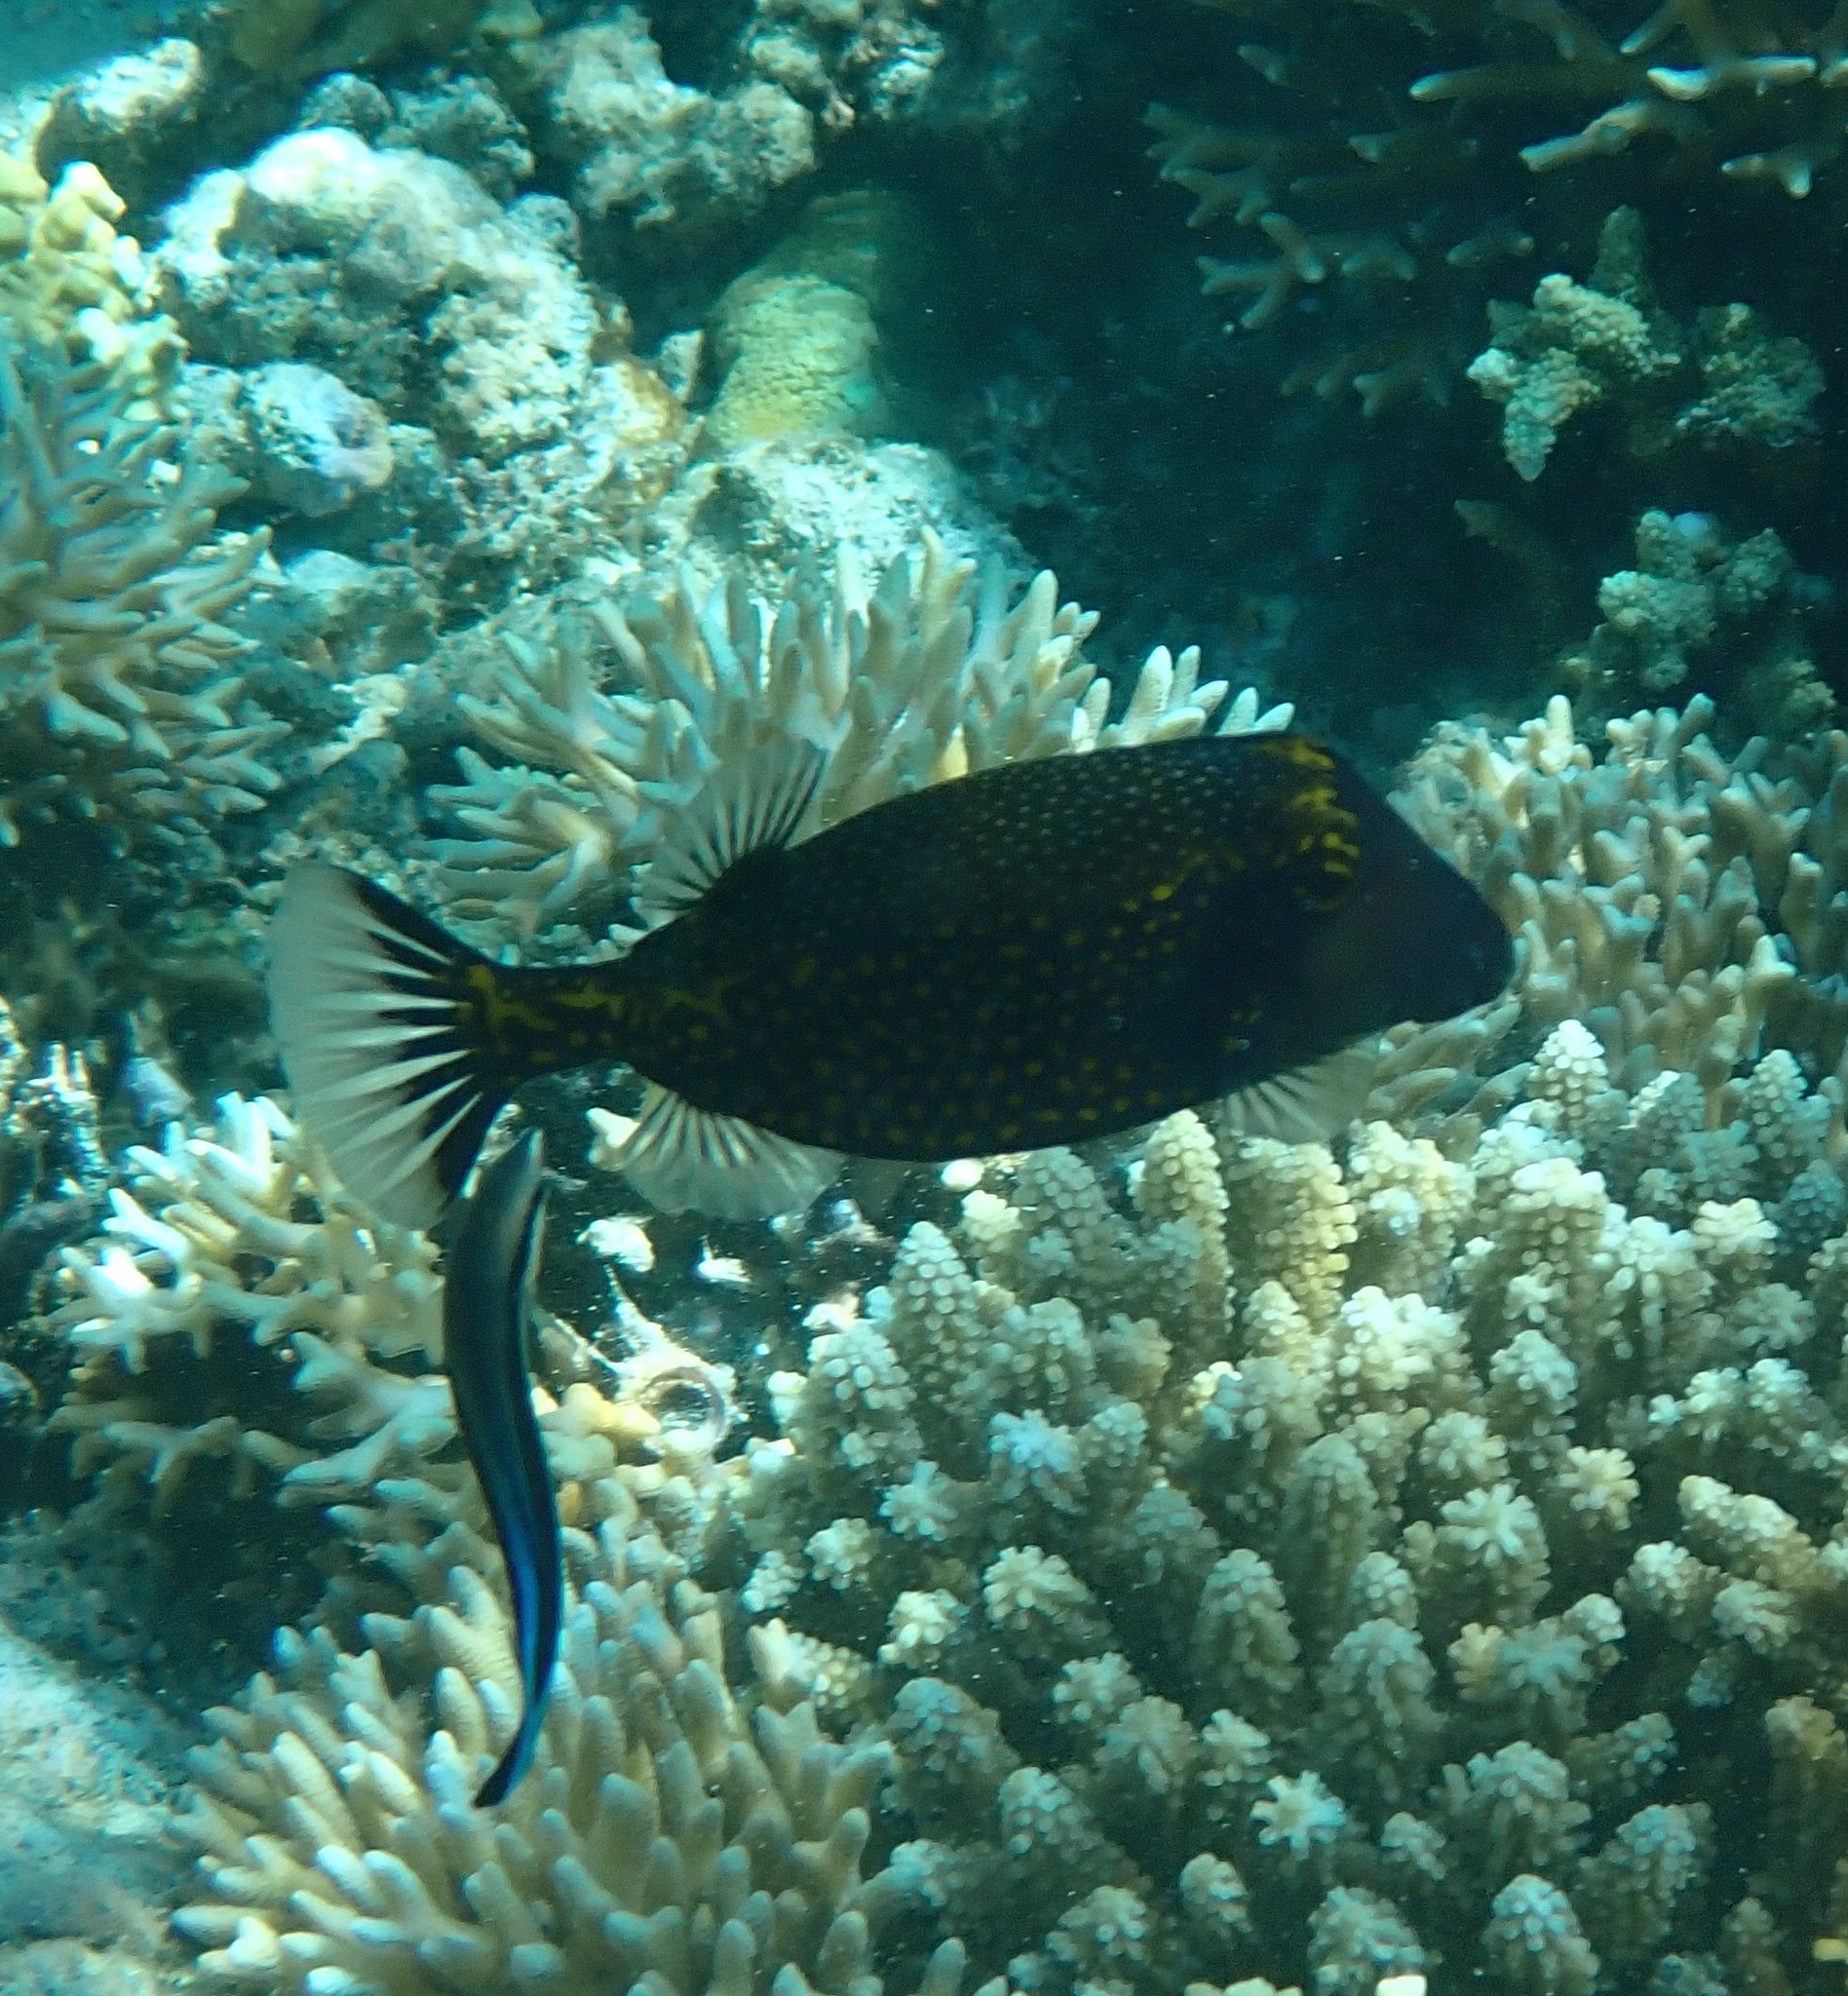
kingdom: Animalia
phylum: Chordata
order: Tetraodontiformes
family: Ostraciidae
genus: Ostracion
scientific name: Ostracion meleagris
